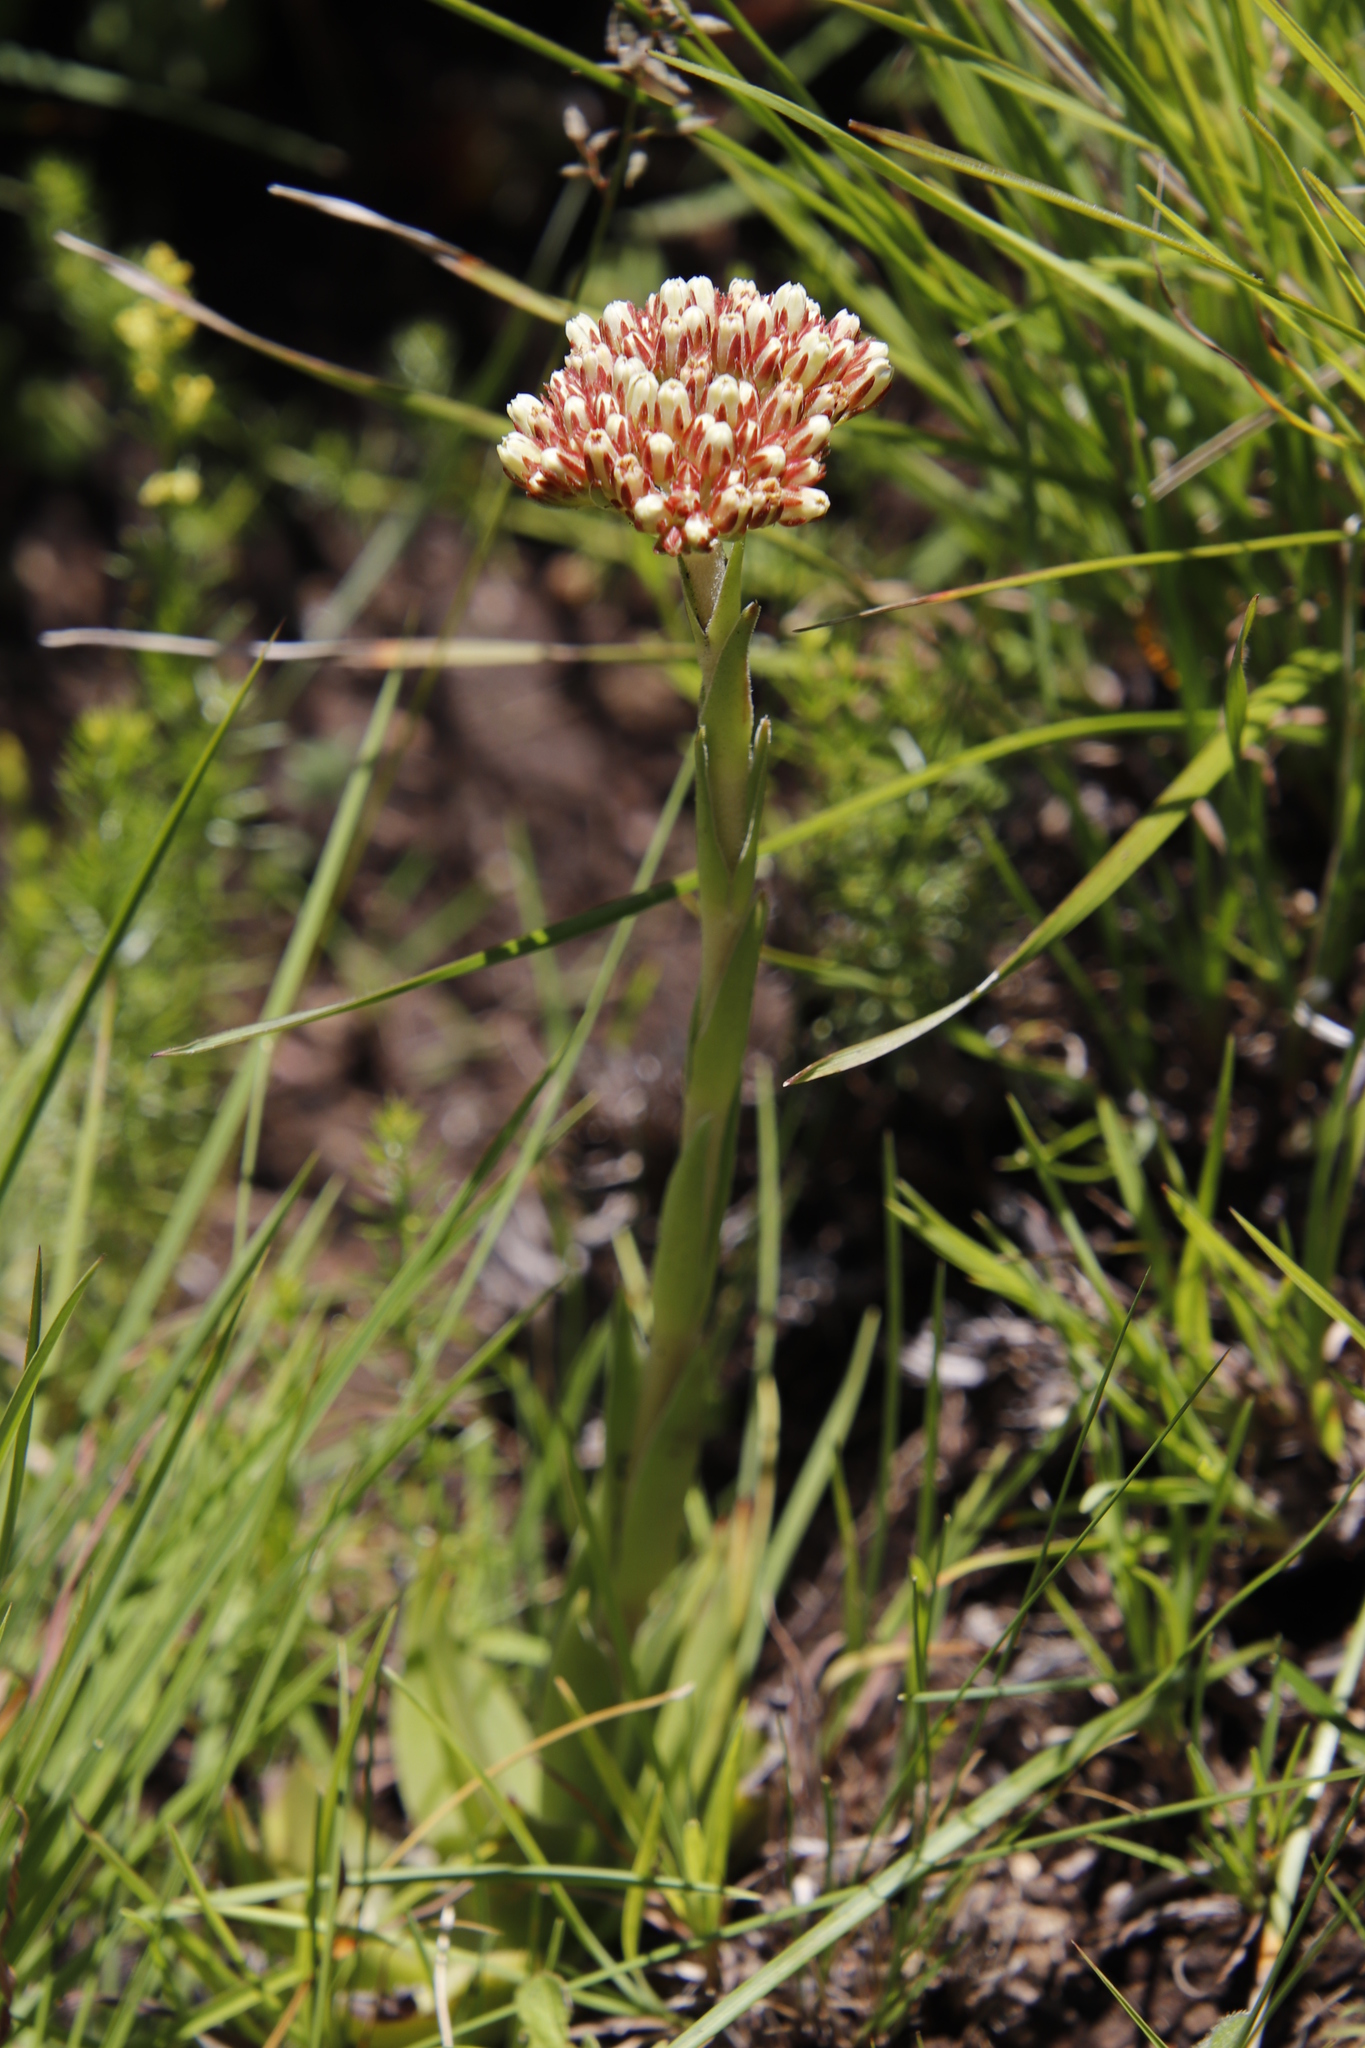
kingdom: Plantae
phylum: Tracheophyta
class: Magnoliopsida
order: Saxifragales
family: Crassulaceae
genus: Crassula
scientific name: Crassula vaginata
